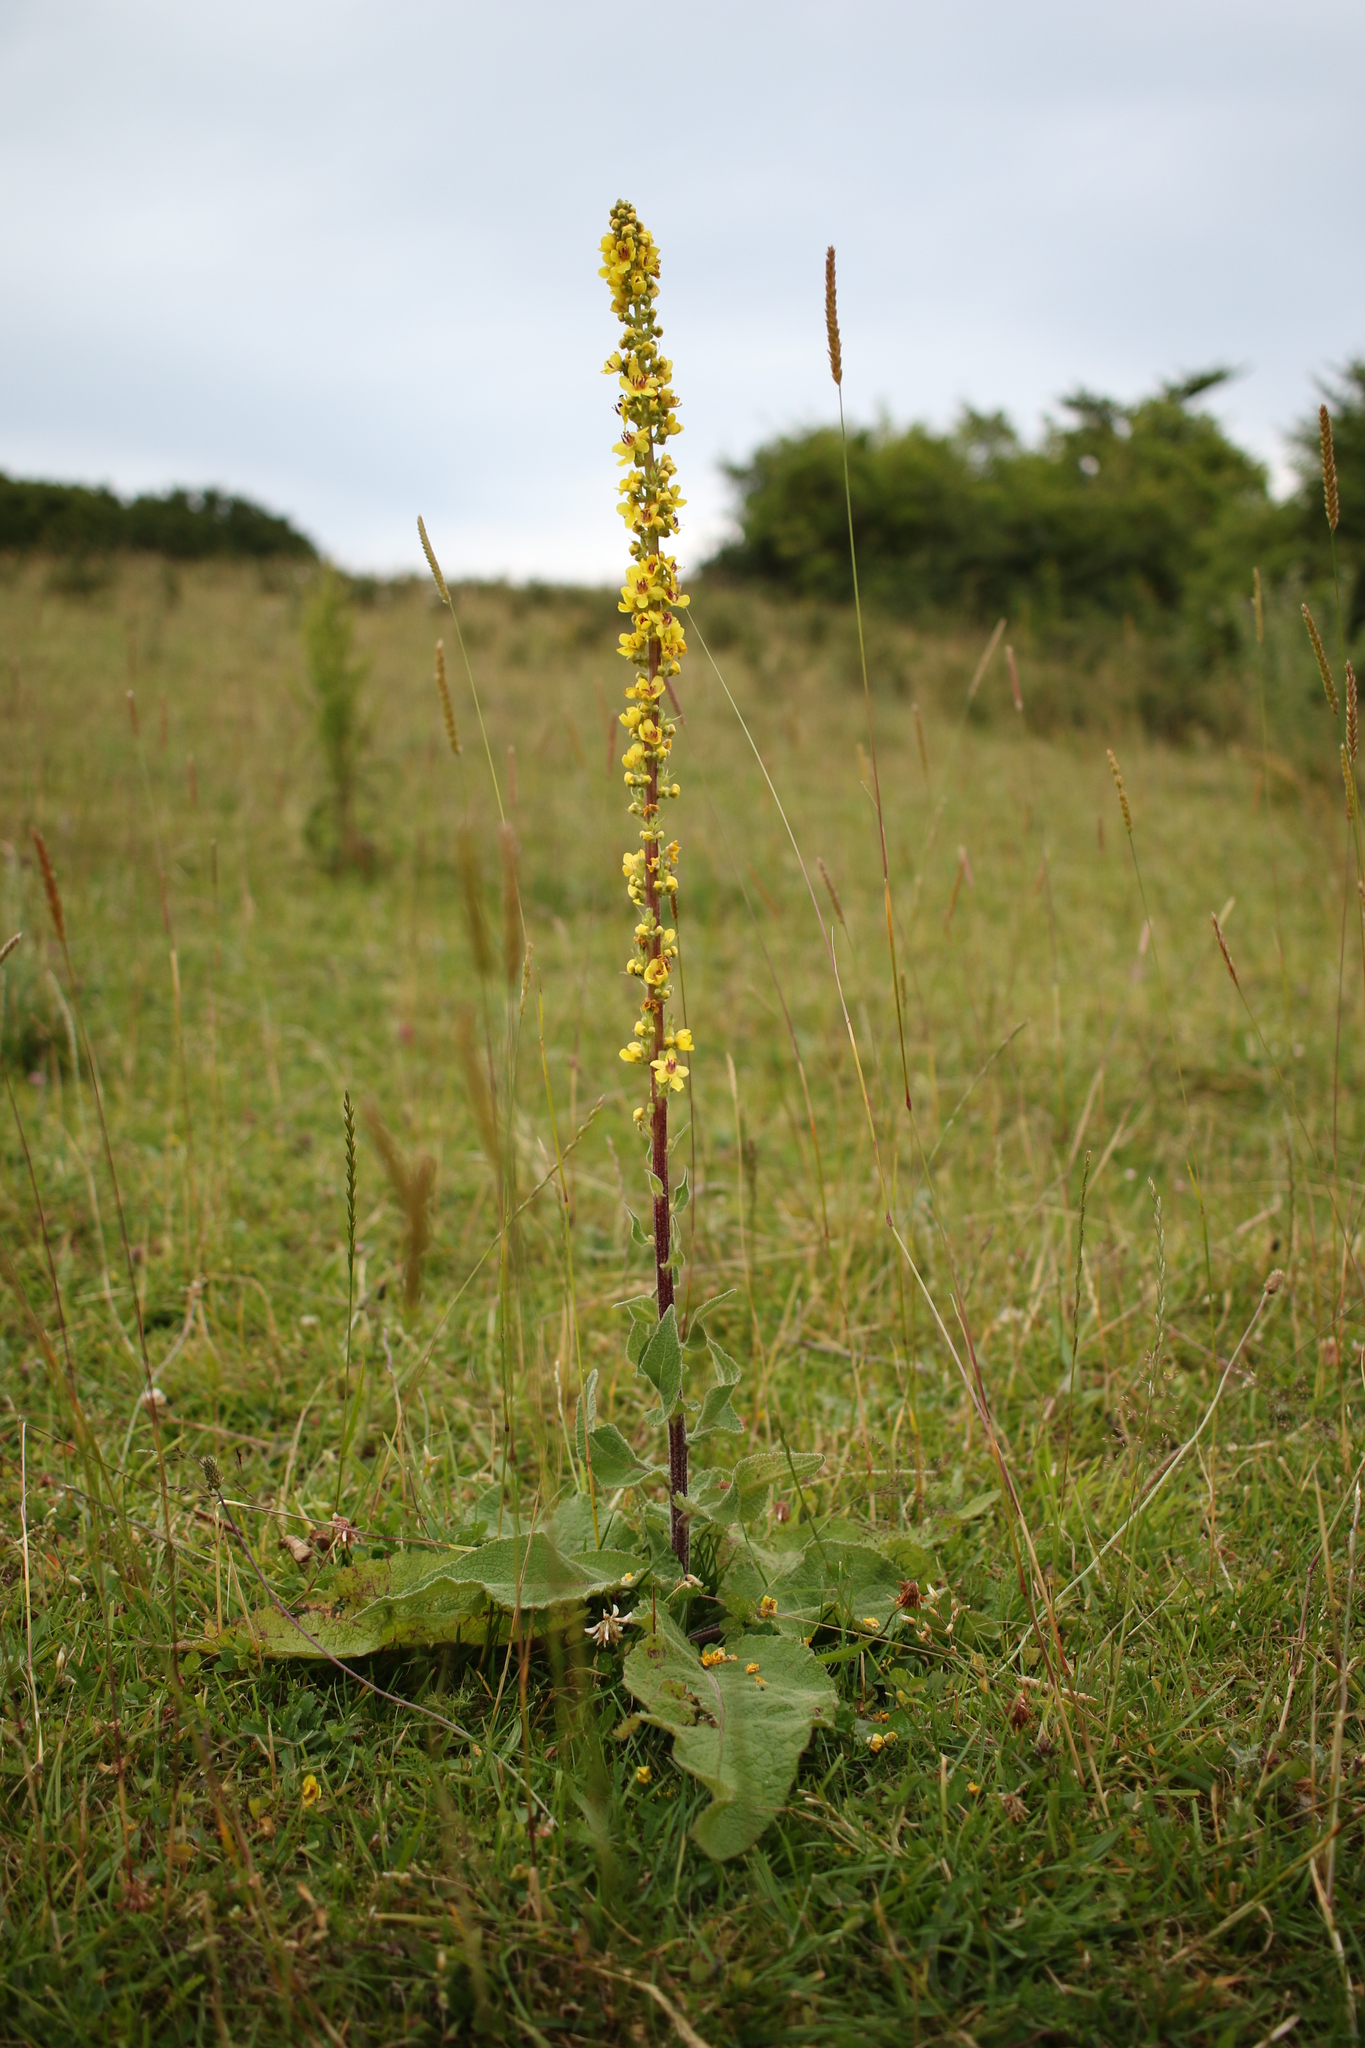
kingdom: Plantae
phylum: Tracheophyta
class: Magnoliopsida
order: Lamiales
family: Scrophulariaceae
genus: Verbascum
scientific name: Verbascum nigrum
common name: Dark mullein
